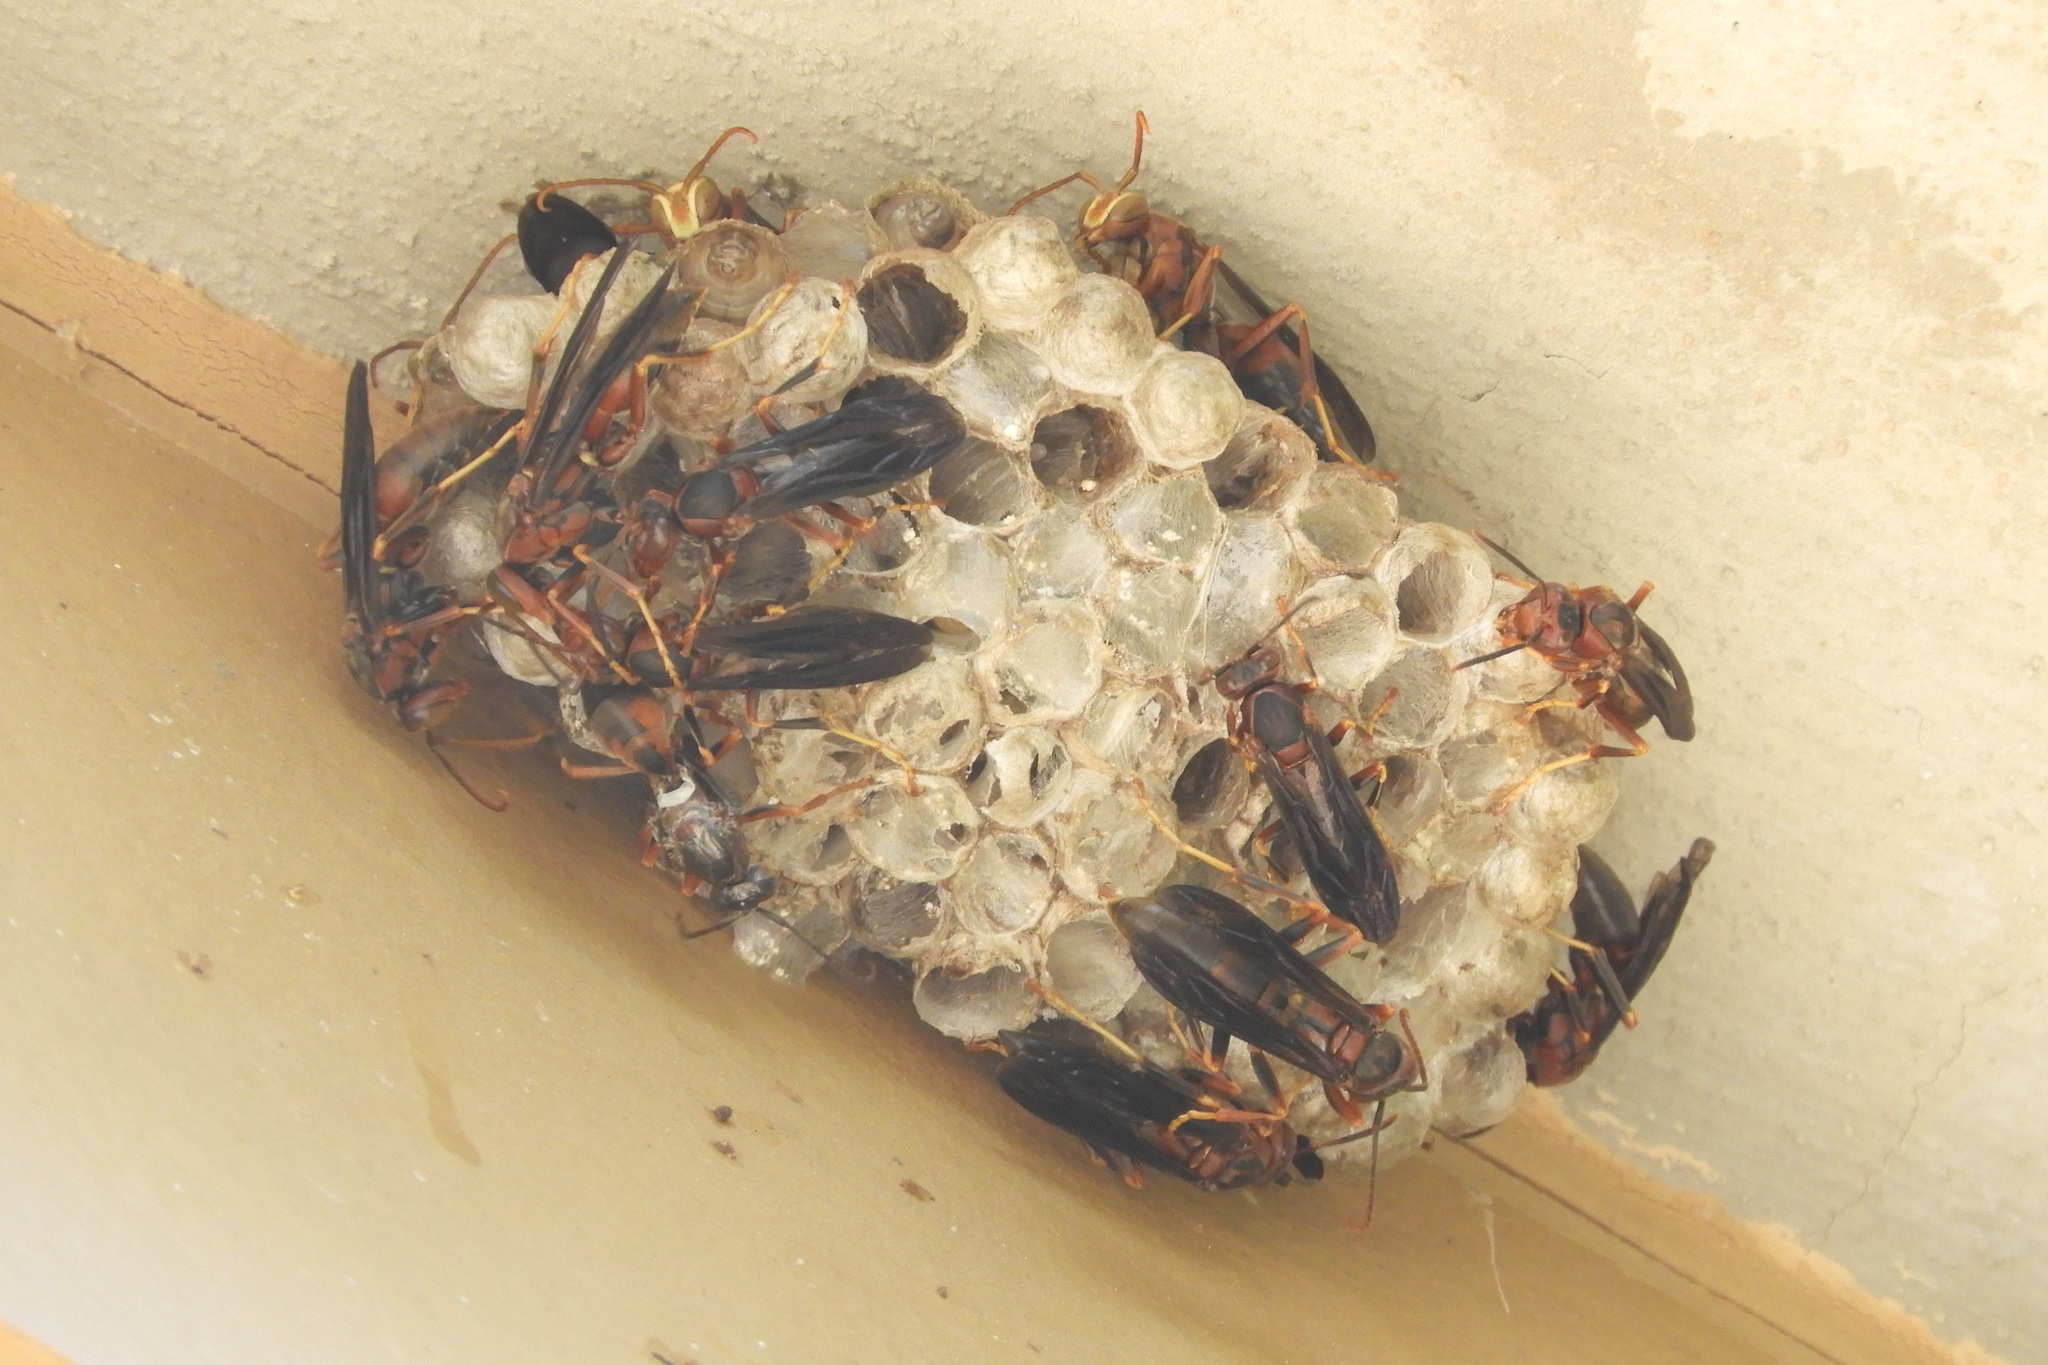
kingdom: Animalia
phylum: Arthropoda
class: Insecta
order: Hymenoptera
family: Eumenidae
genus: Polistes
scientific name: Polistes metricus
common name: Metric paper wasp
